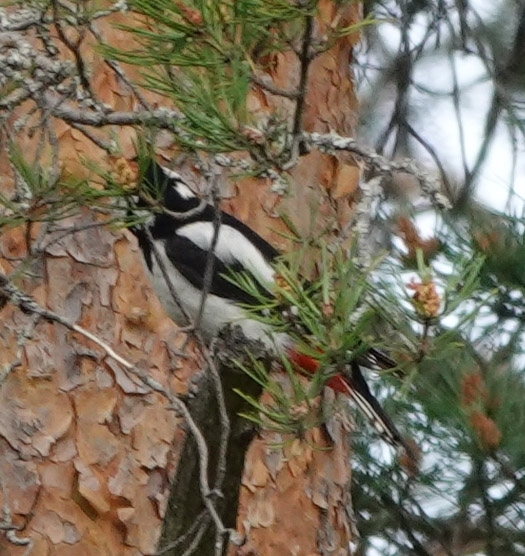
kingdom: Animalia
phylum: Chordata
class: Aves
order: Piciformes
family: Picidae
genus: Dendrocopos
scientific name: Dendrocopos major
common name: Great spotted woodpecker
